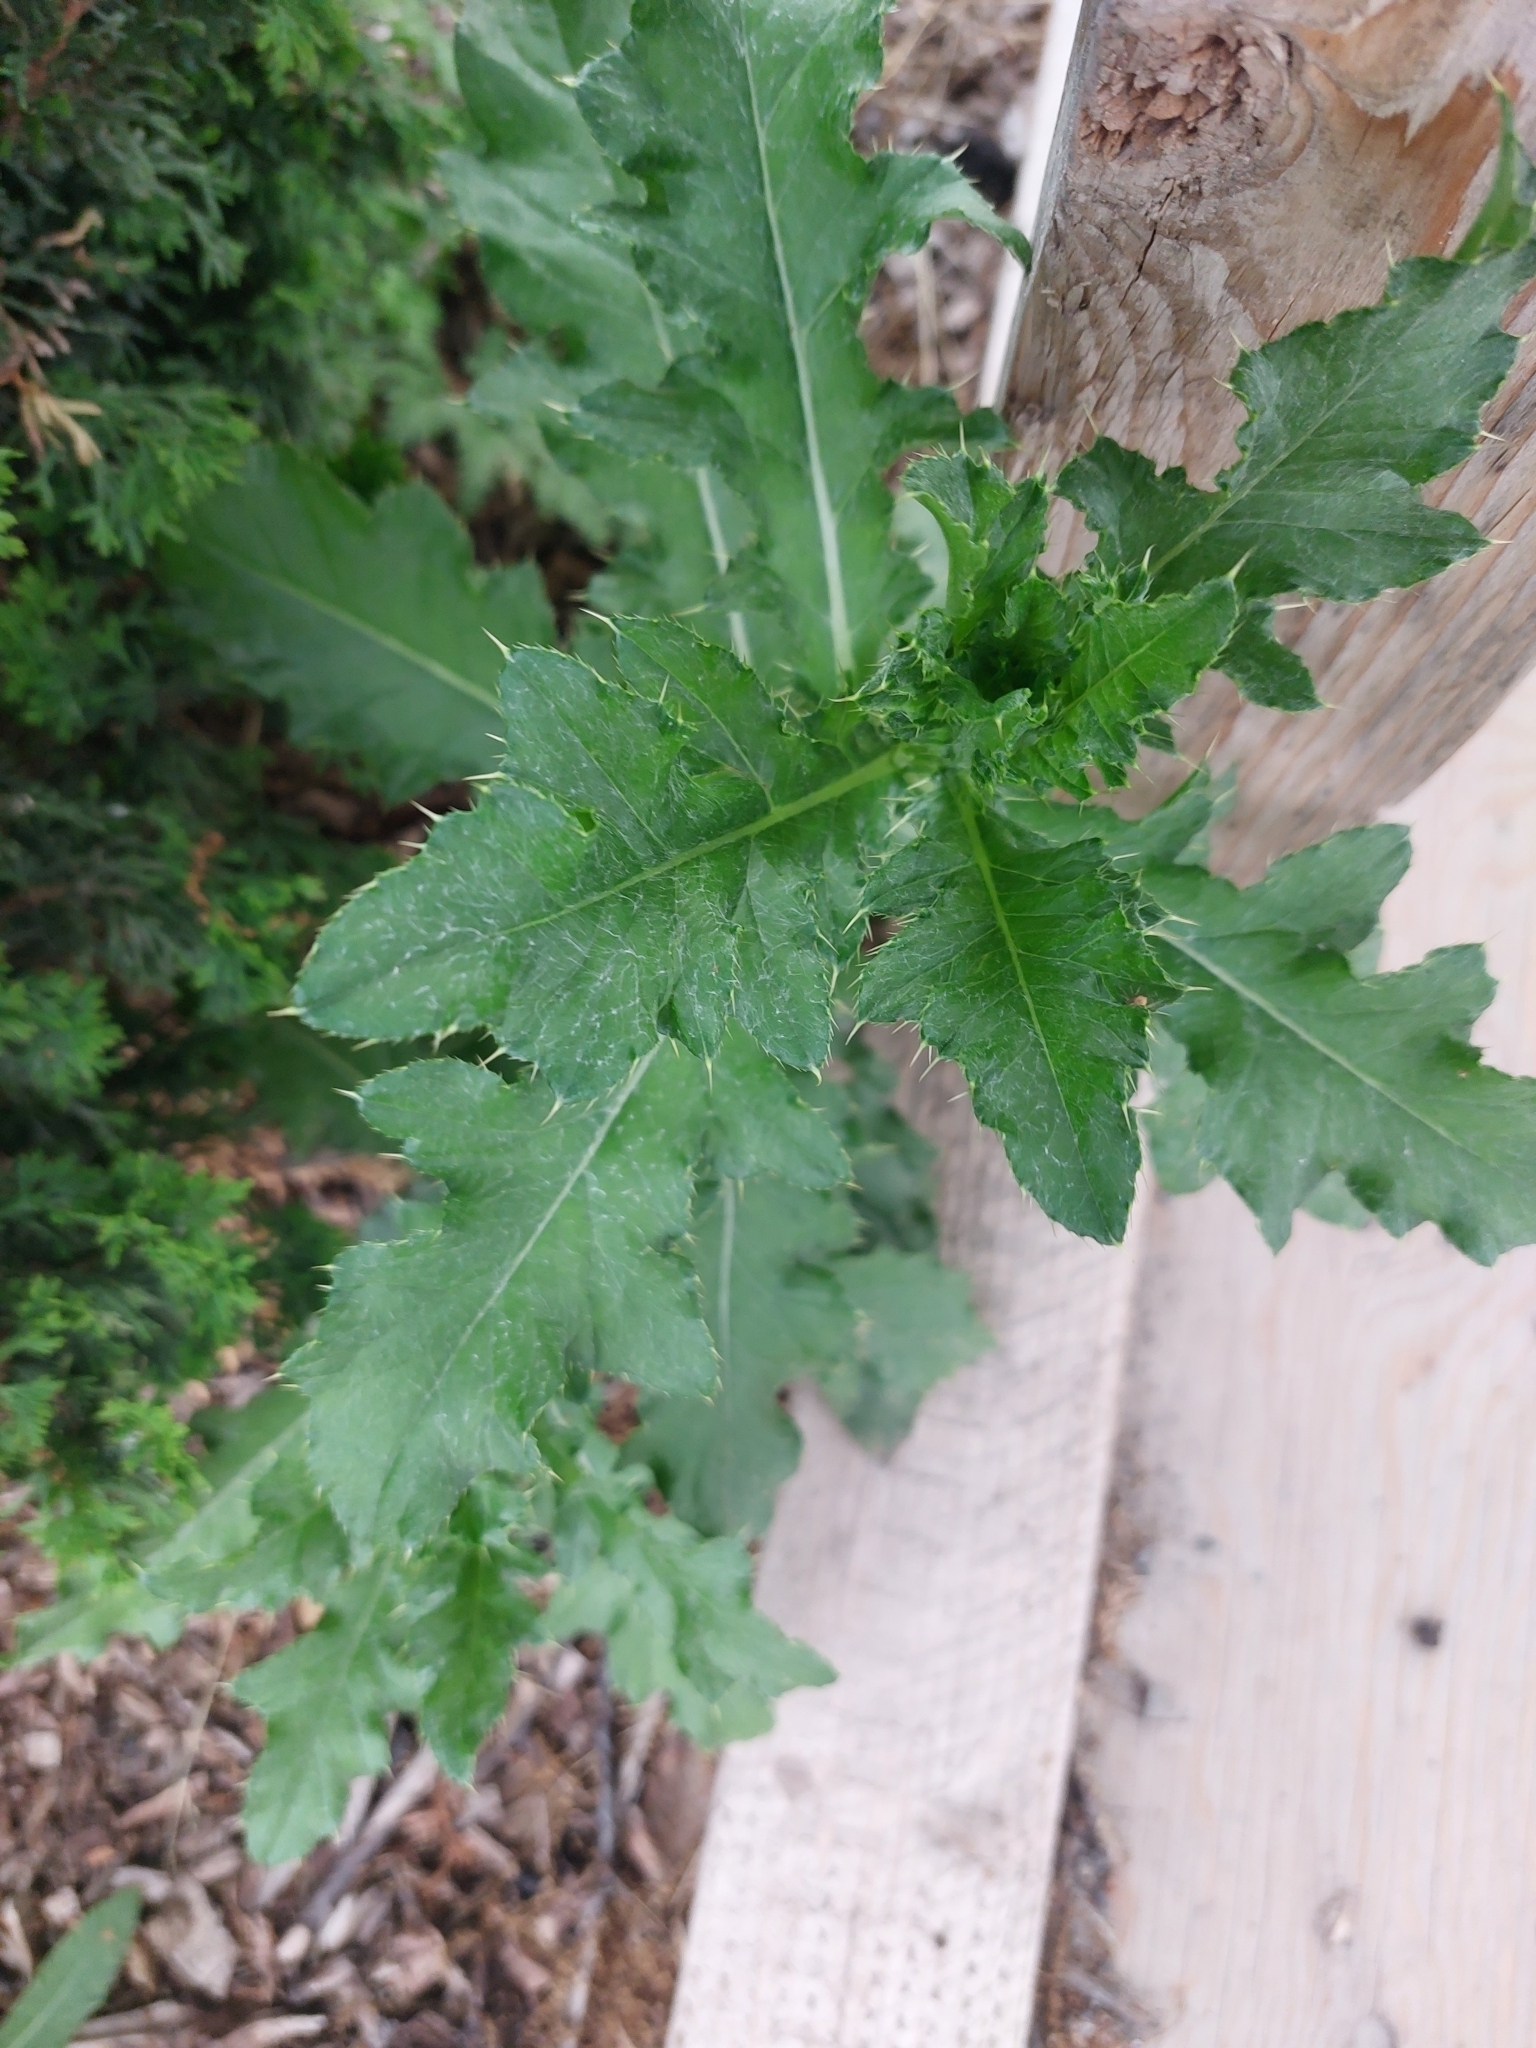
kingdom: Plantae
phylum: Tracheophyta
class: Magnoliopsida
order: Asterales
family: Asteraceae
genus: Cirsium
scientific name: Cirsium arvense
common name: Creeping thistle
